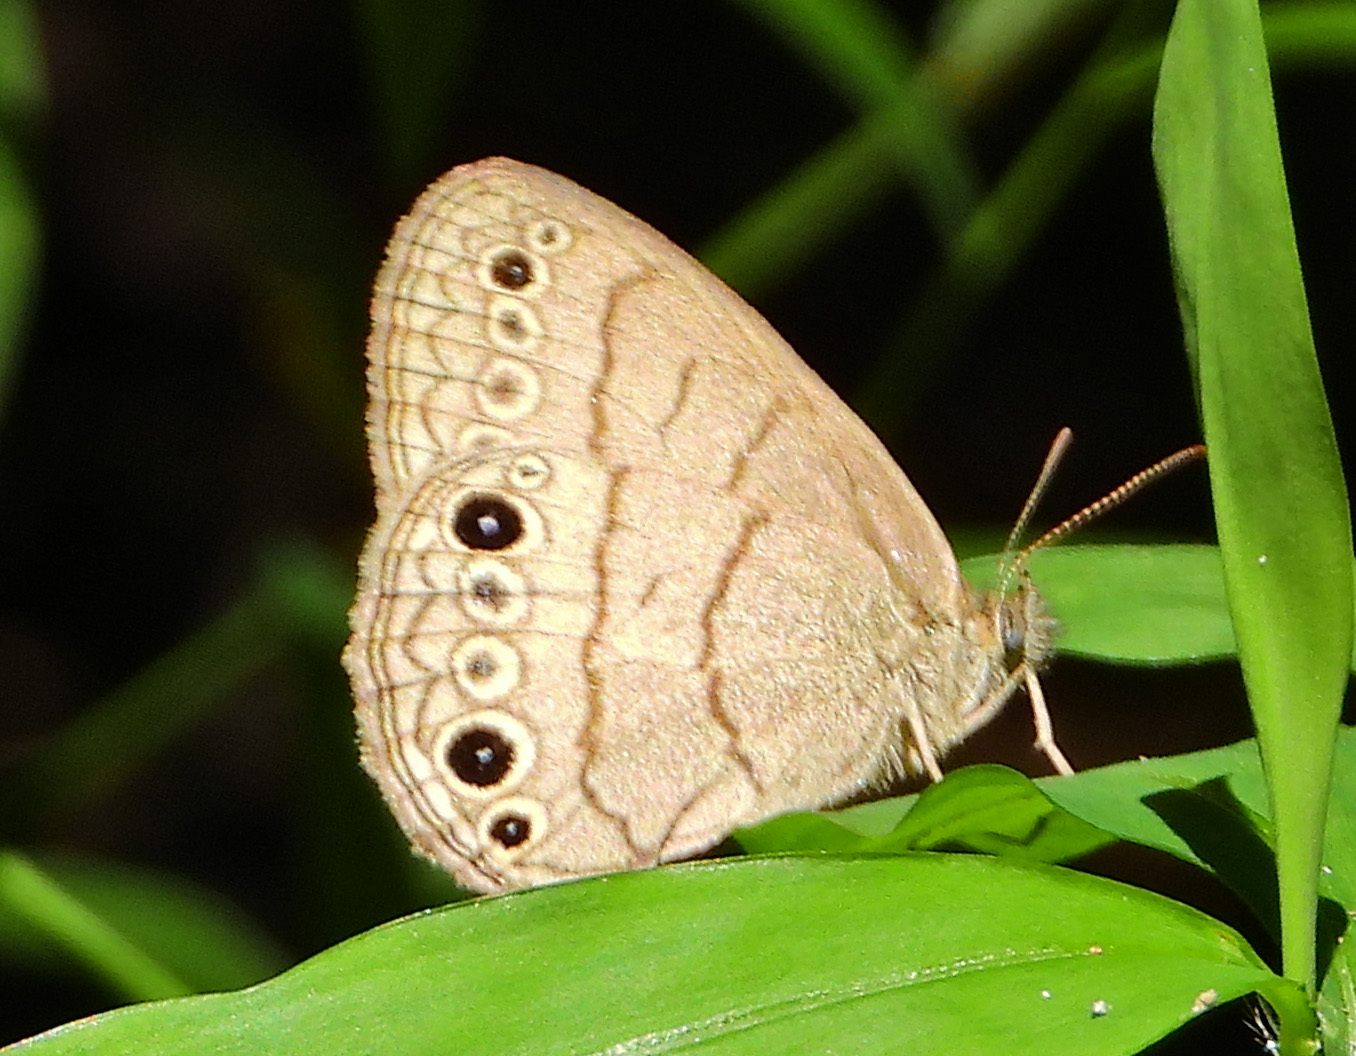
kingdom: Animalia
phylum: Arthropoda
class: Insecta
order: Lepidoptera
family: Nymphalidae
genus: Hermeuptychia
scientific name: Hermeuptychia hermes
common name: Hermes satyr
